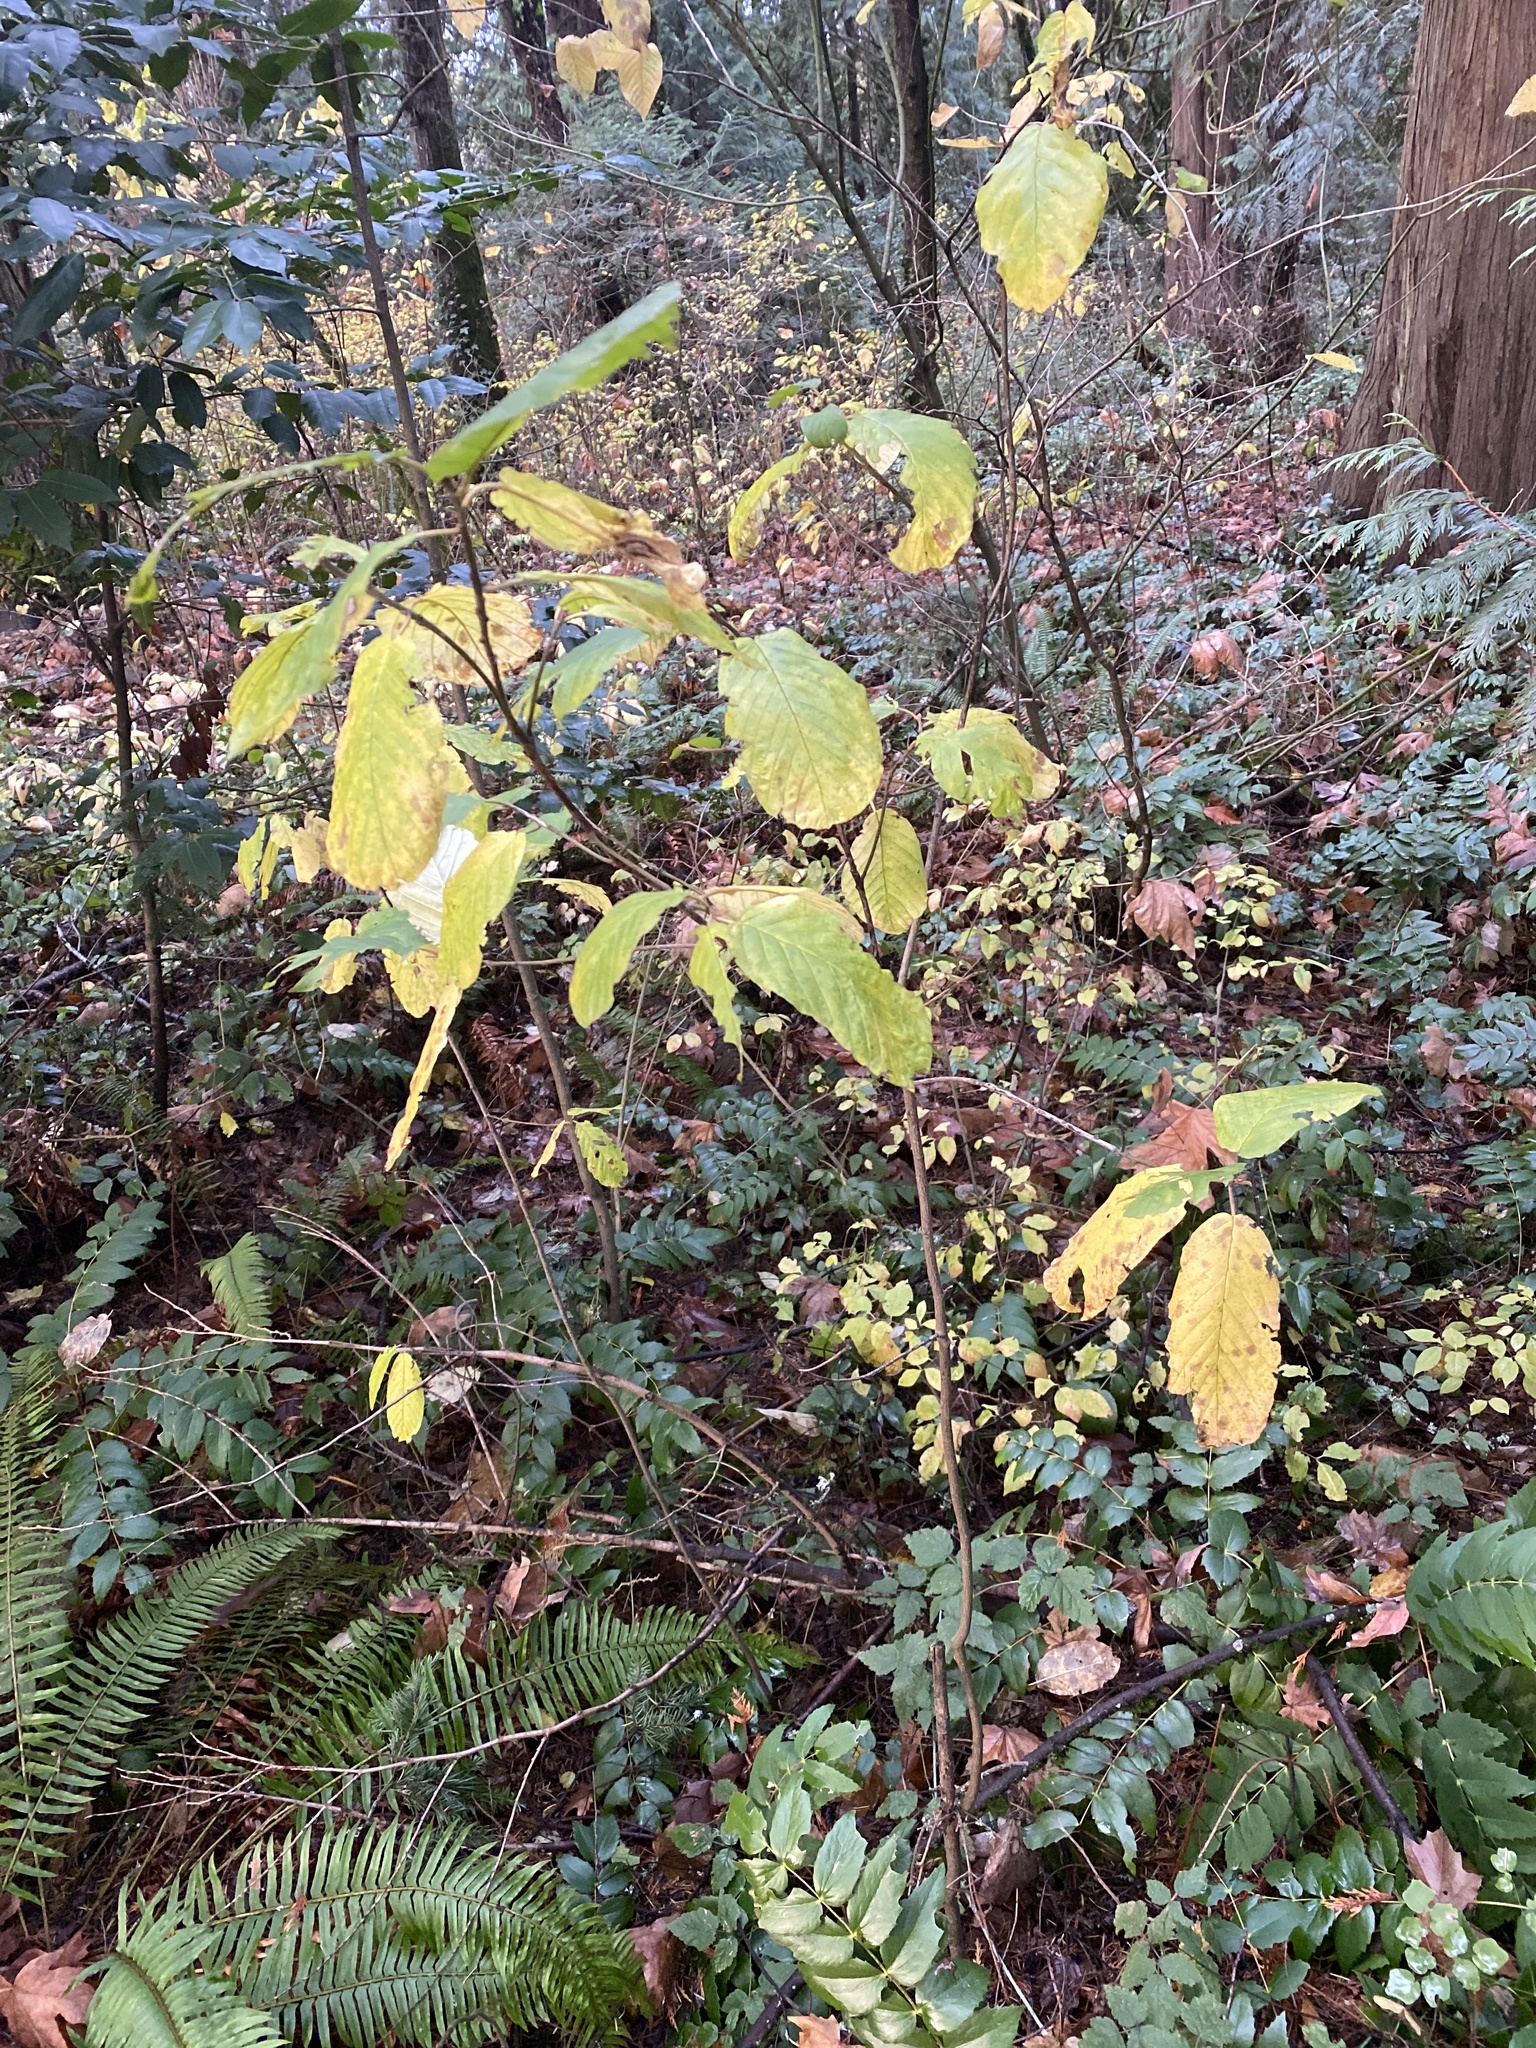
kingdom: Plantae
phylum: Tracheophyta
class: Magnoliopsida
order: Rosales
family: Rosaceae
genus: Oemleria
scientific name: Oemleria cerasiformis
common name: Osoberry
